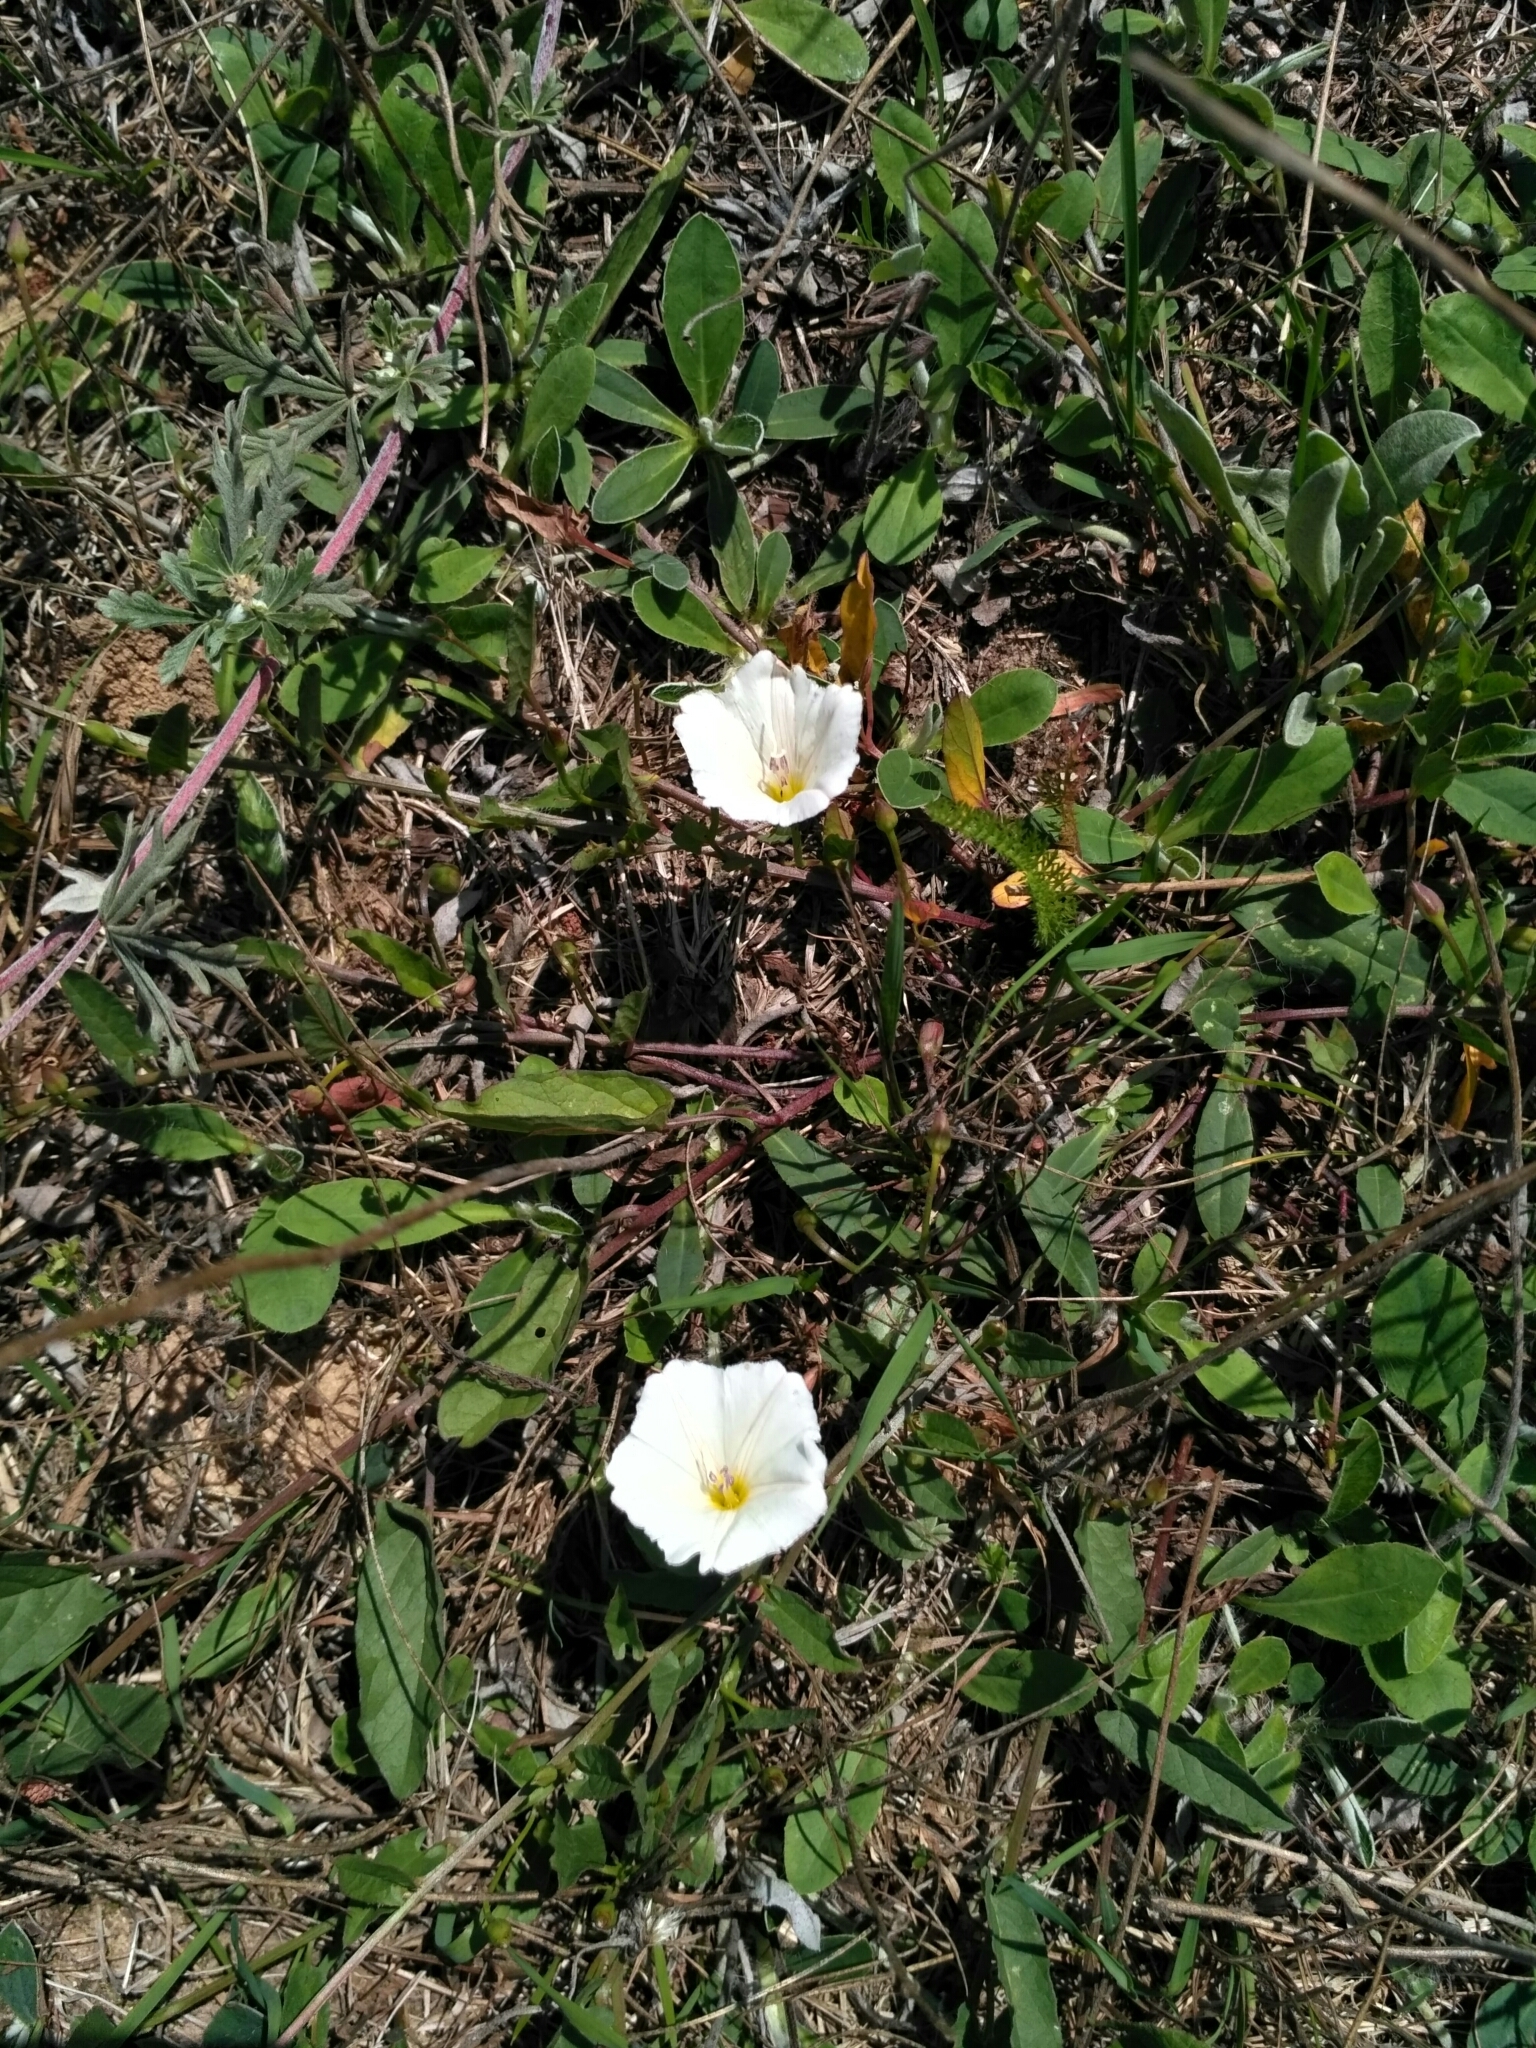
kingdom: Plantae
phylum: Tracheophyta
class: Magnoliopsida
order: Solanales
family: Convolvulaceae
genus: Convolvulus
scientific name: Convolvulus arvensis
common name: Field bindweed
